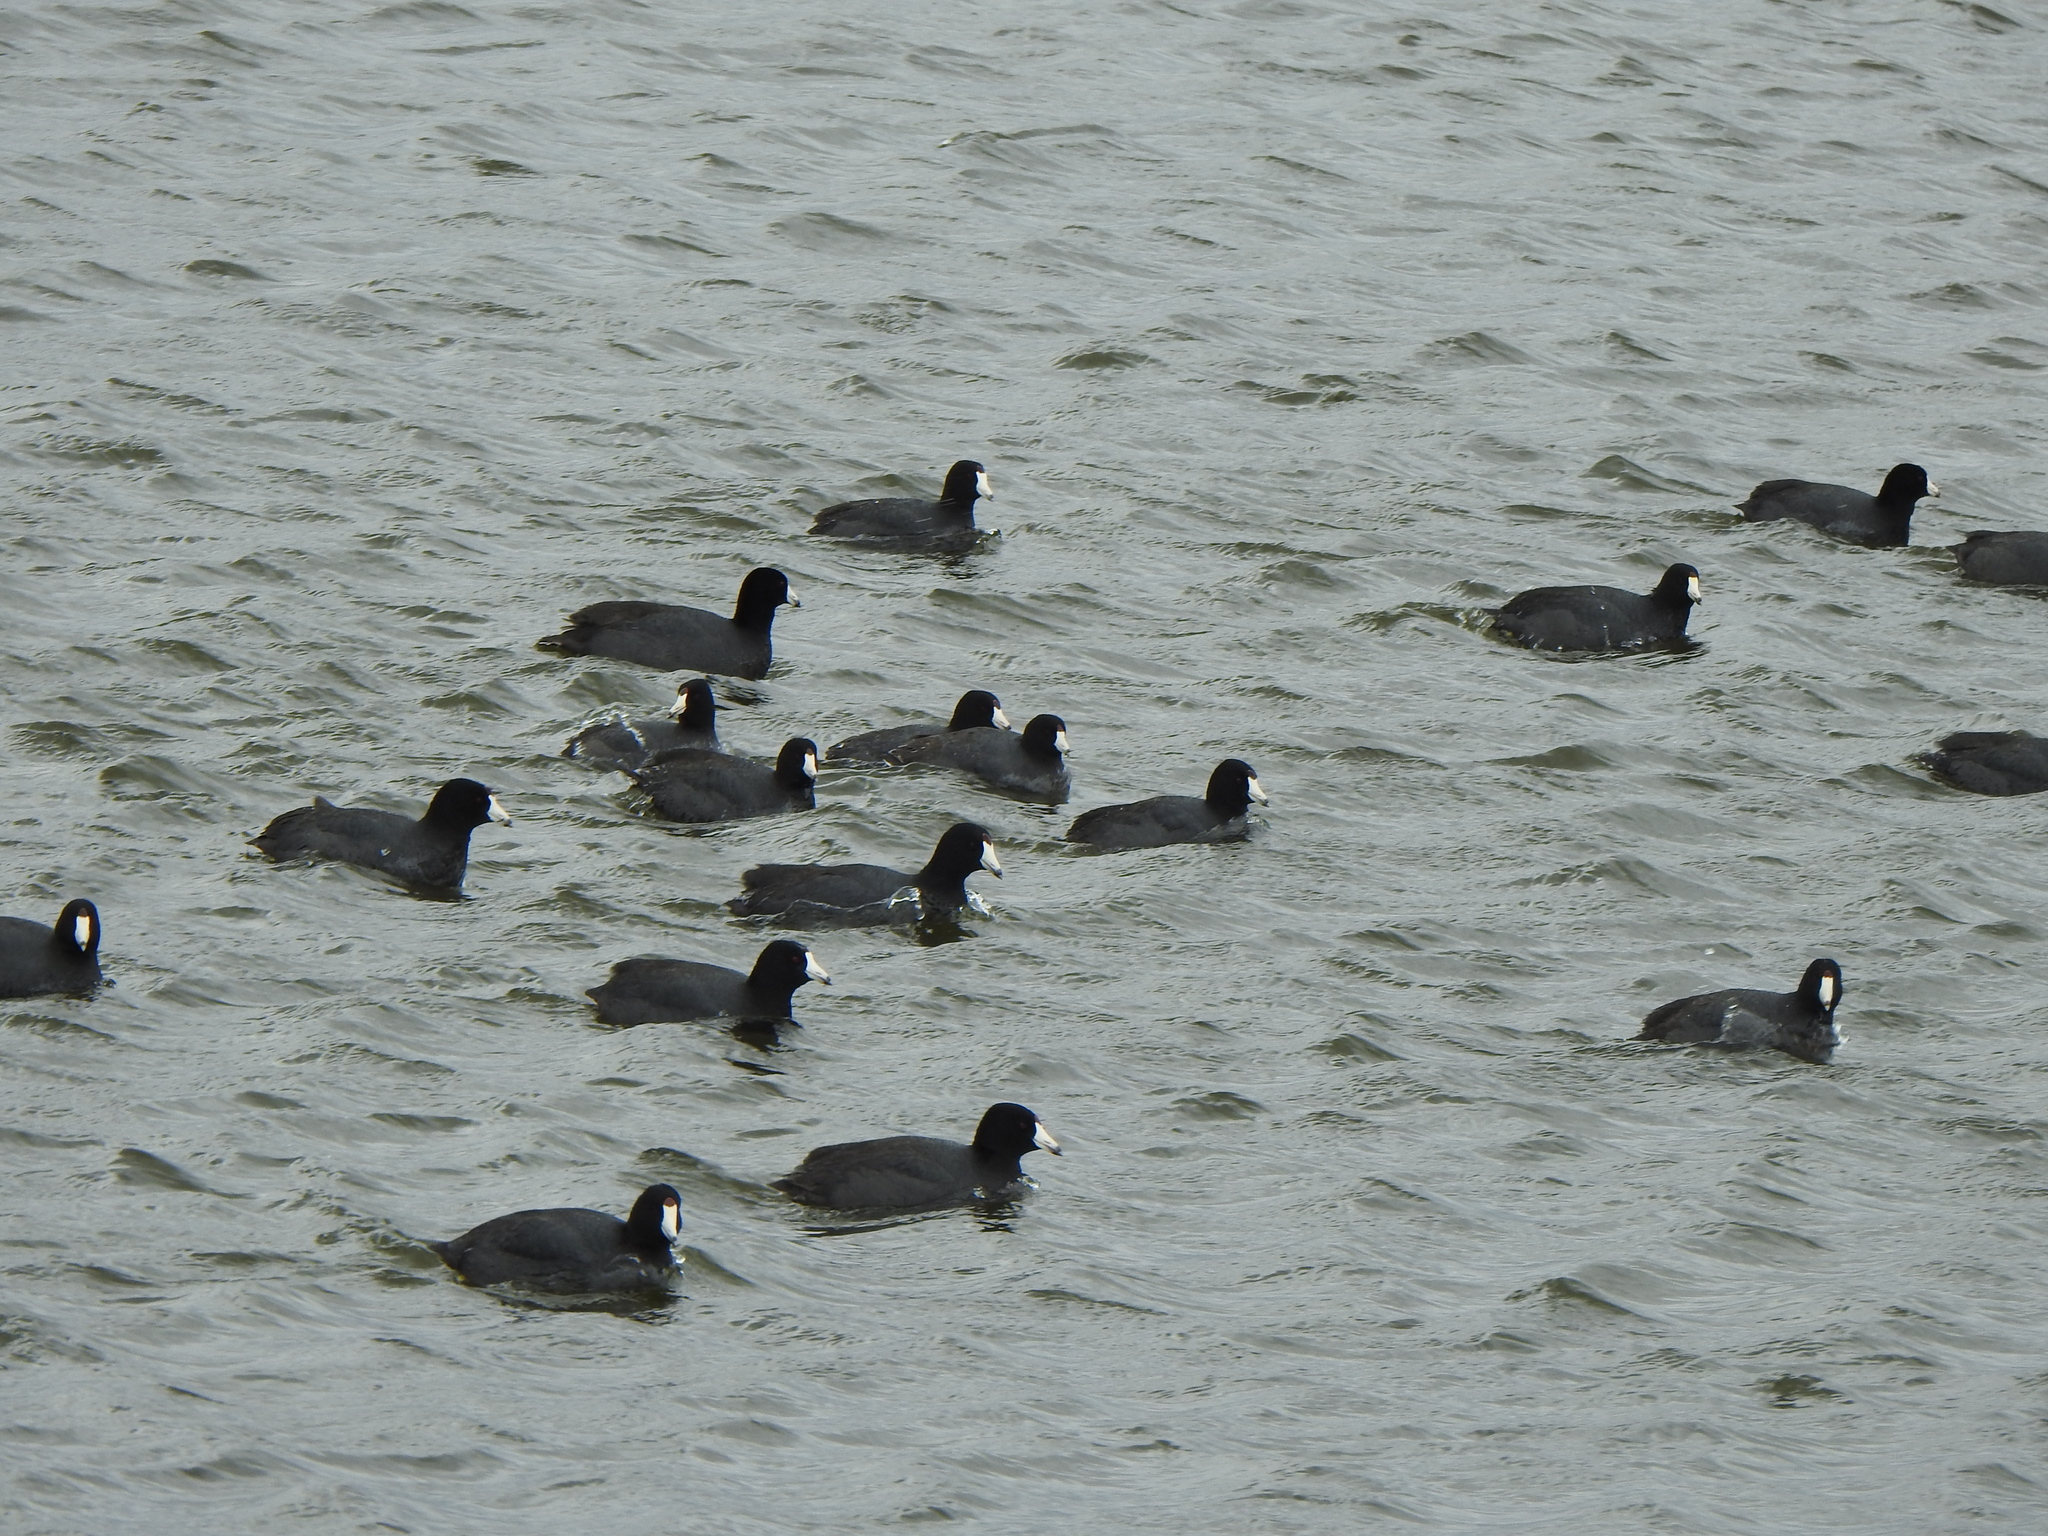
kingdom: Animalia
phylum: Chordata
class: Aves
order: Gruiformes
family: Rallidae
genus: Fulica
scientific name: Fulica americana
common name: American coot
